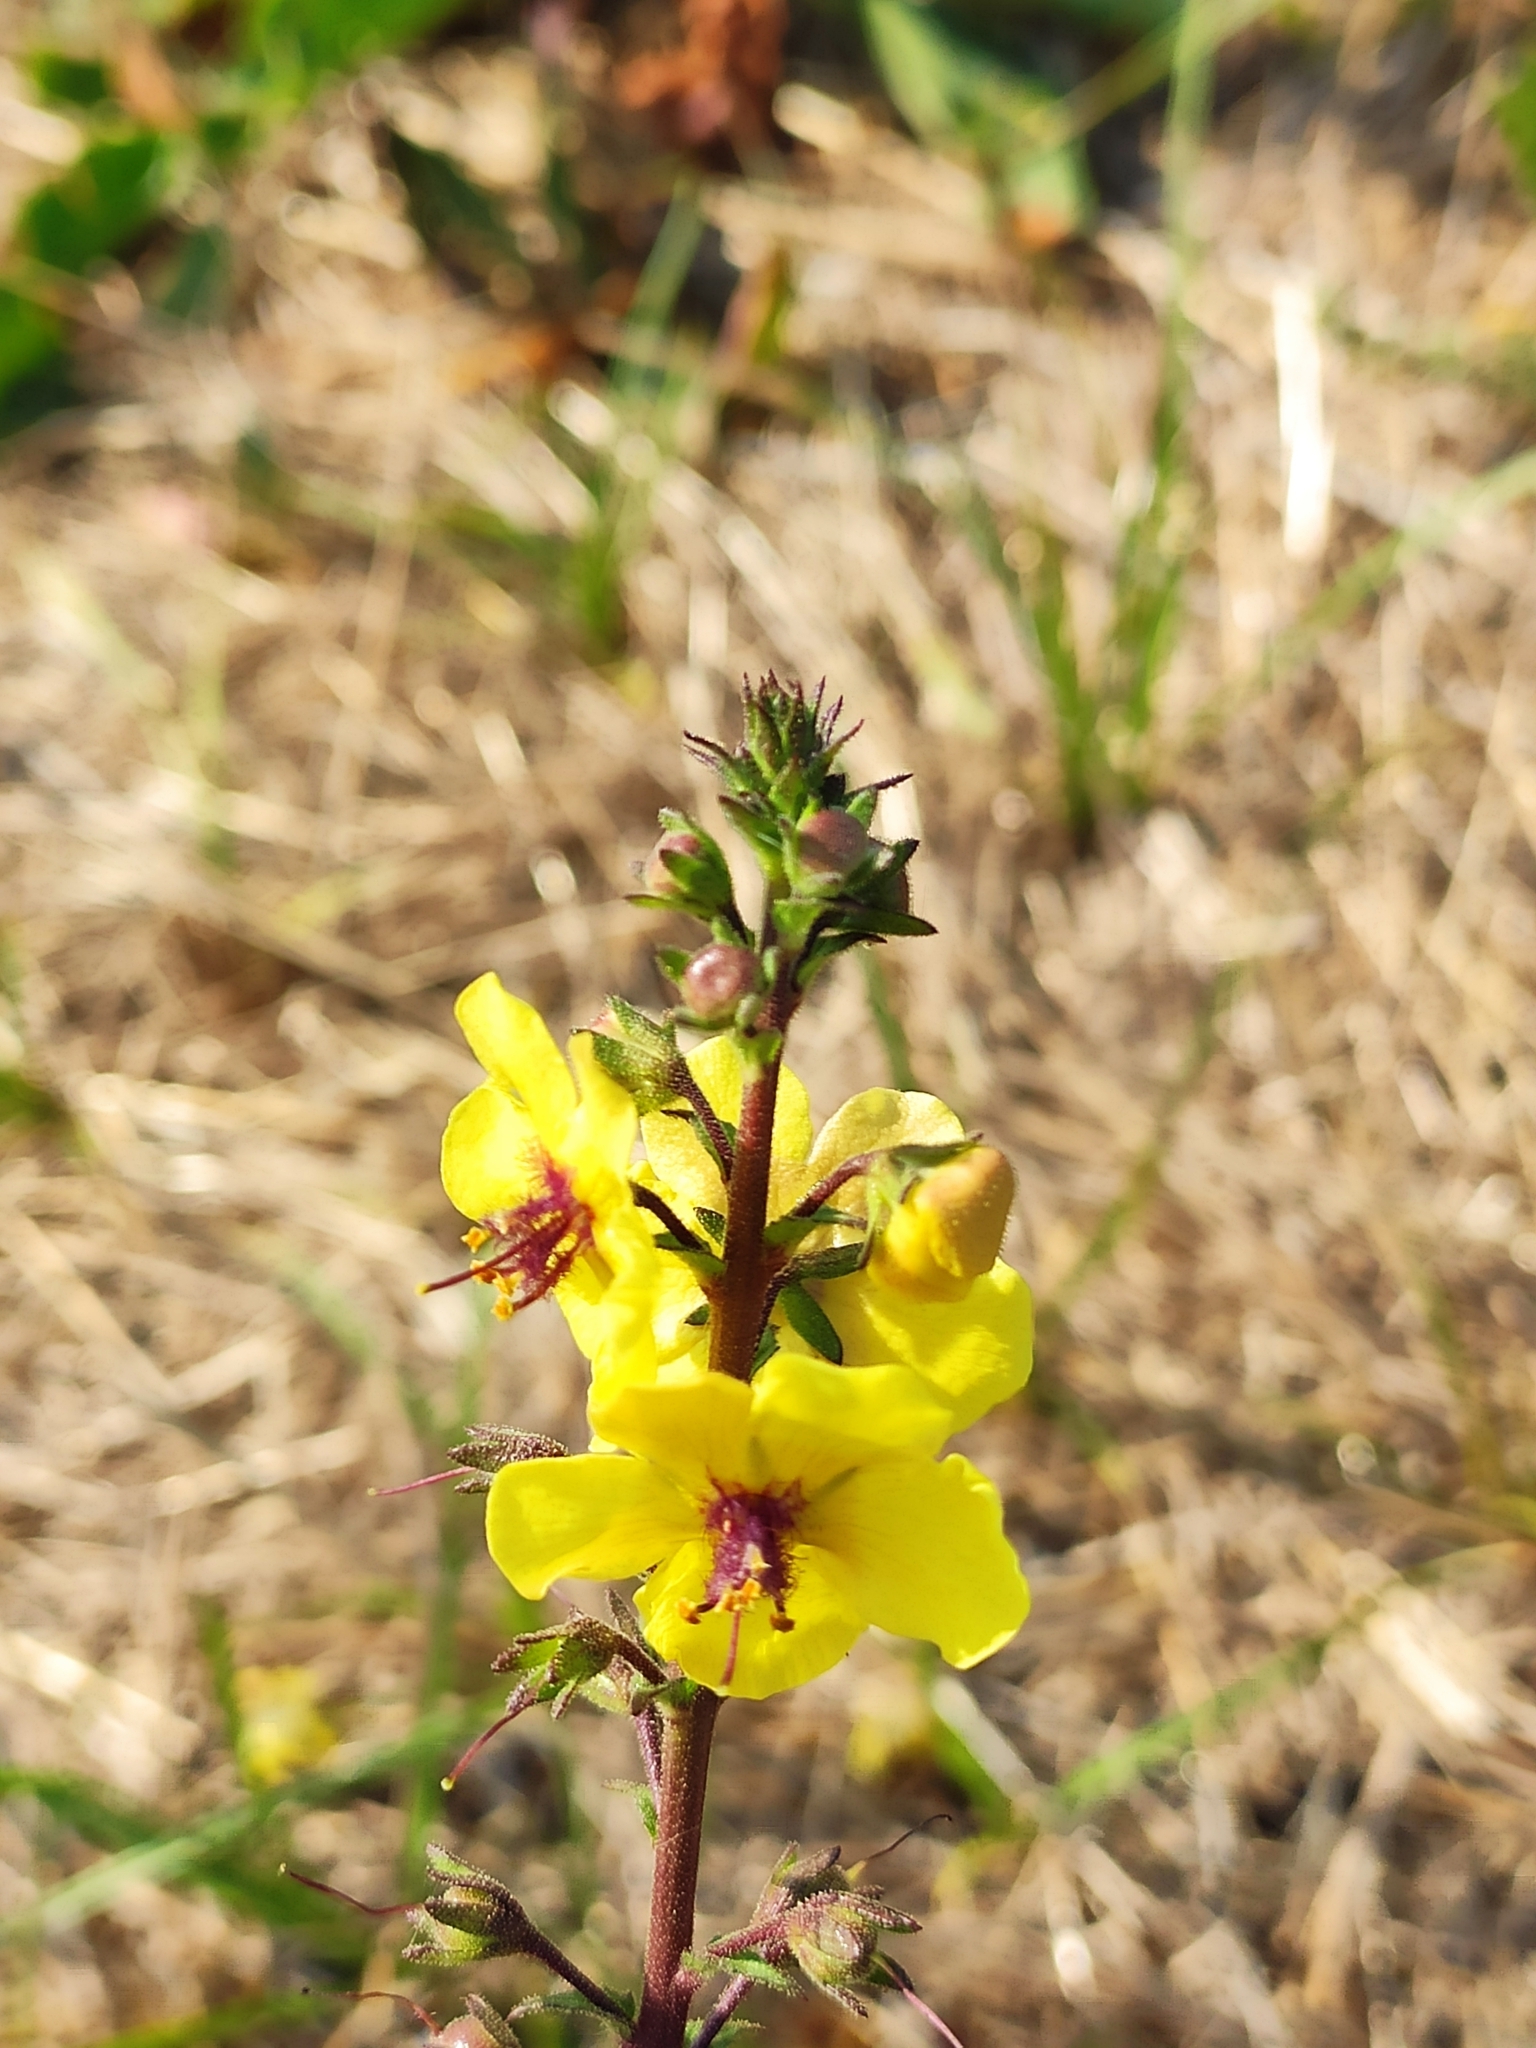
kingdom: Plantae
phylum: Tracheophyta
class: Magnoliopsida
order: Lamiales
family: Scrophulariaceae
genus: Verbascum
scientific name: Verbascum blattaria
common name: Moth mullein
